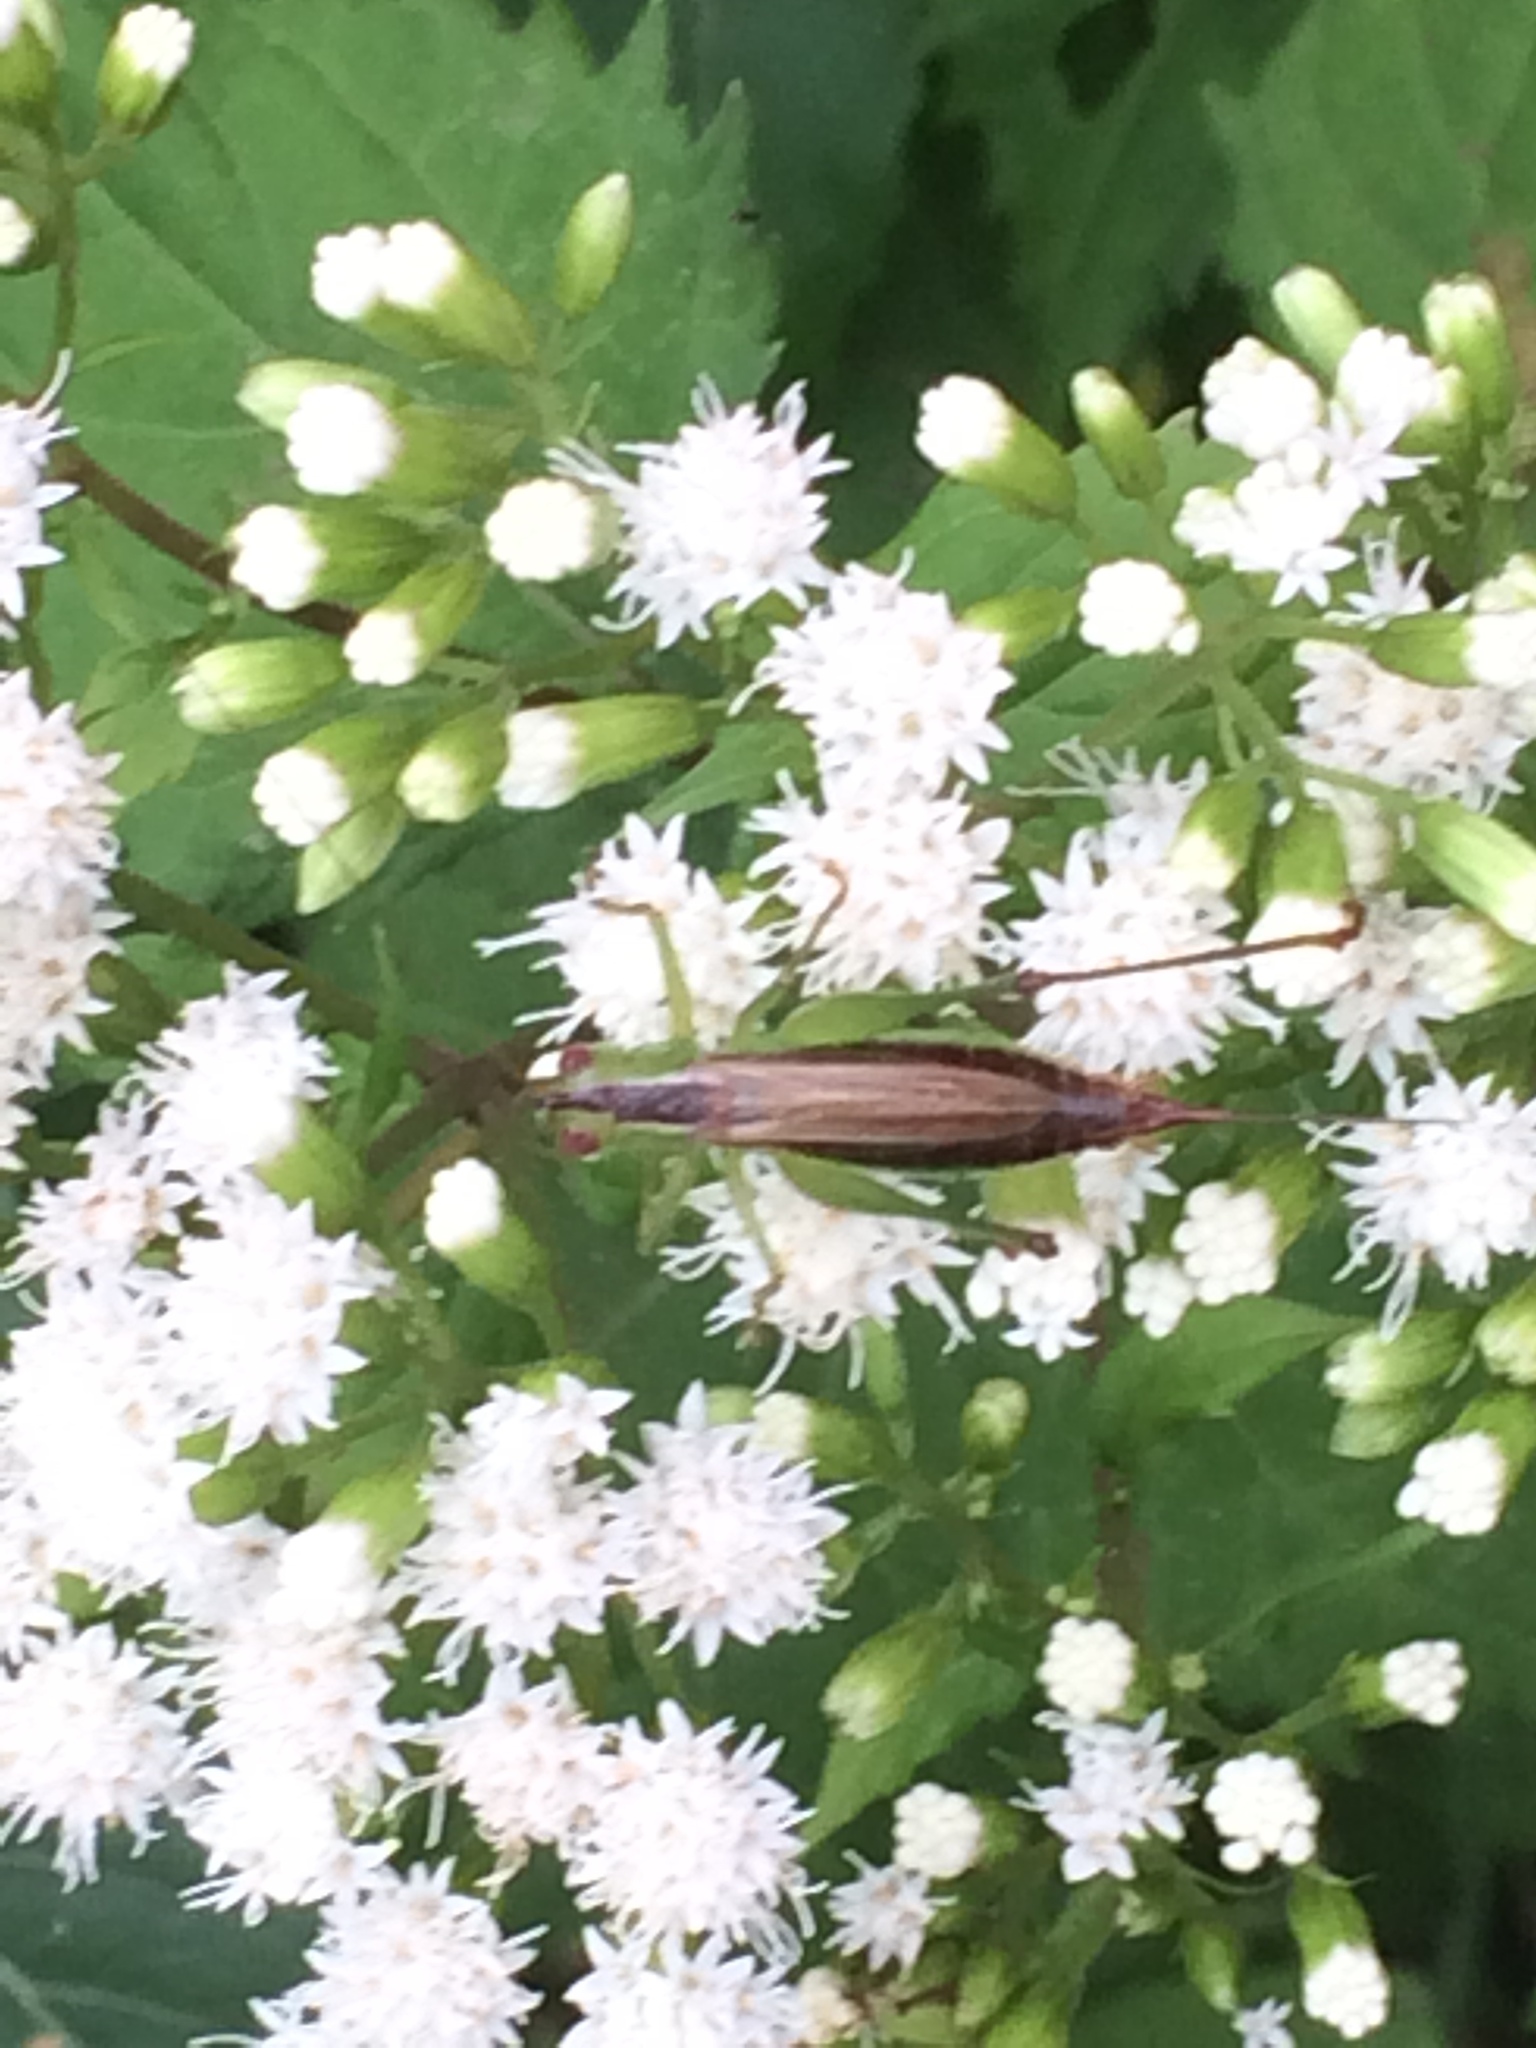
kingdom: Animalia
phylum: Arthropoda
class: Insecta
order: Orthoptera
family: Tettigoniidae
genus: Conocephalus
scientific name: Conocephalus brevipennis
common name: Short-winged meadow katydid
